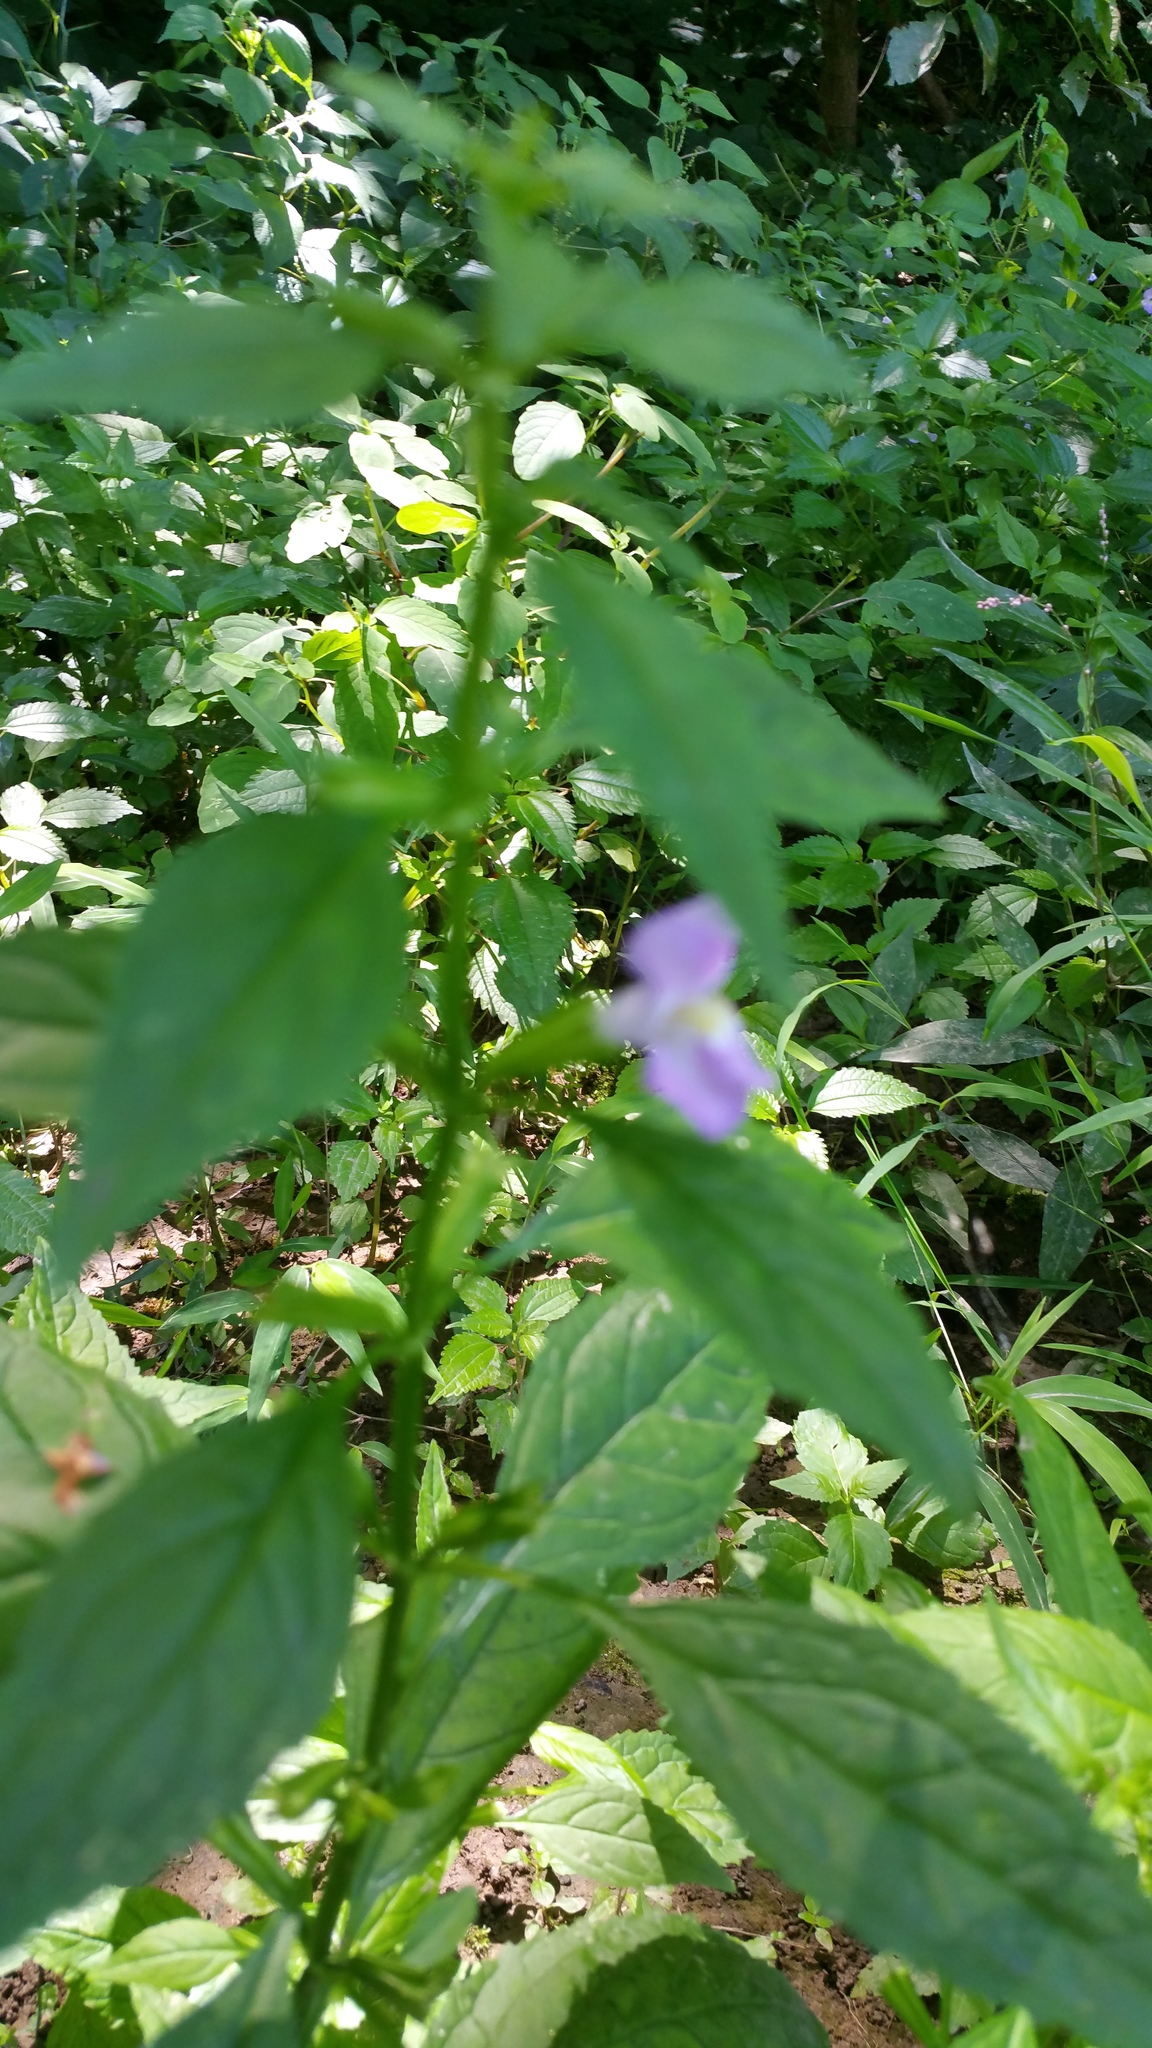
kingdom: Plantae
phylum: Tracheophyta
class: Magnoliopsida
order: Lamiales
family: Phrymaceae
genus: Mimulus
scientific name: Mimulus alatus
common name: Sharp-wing monkey-flower
